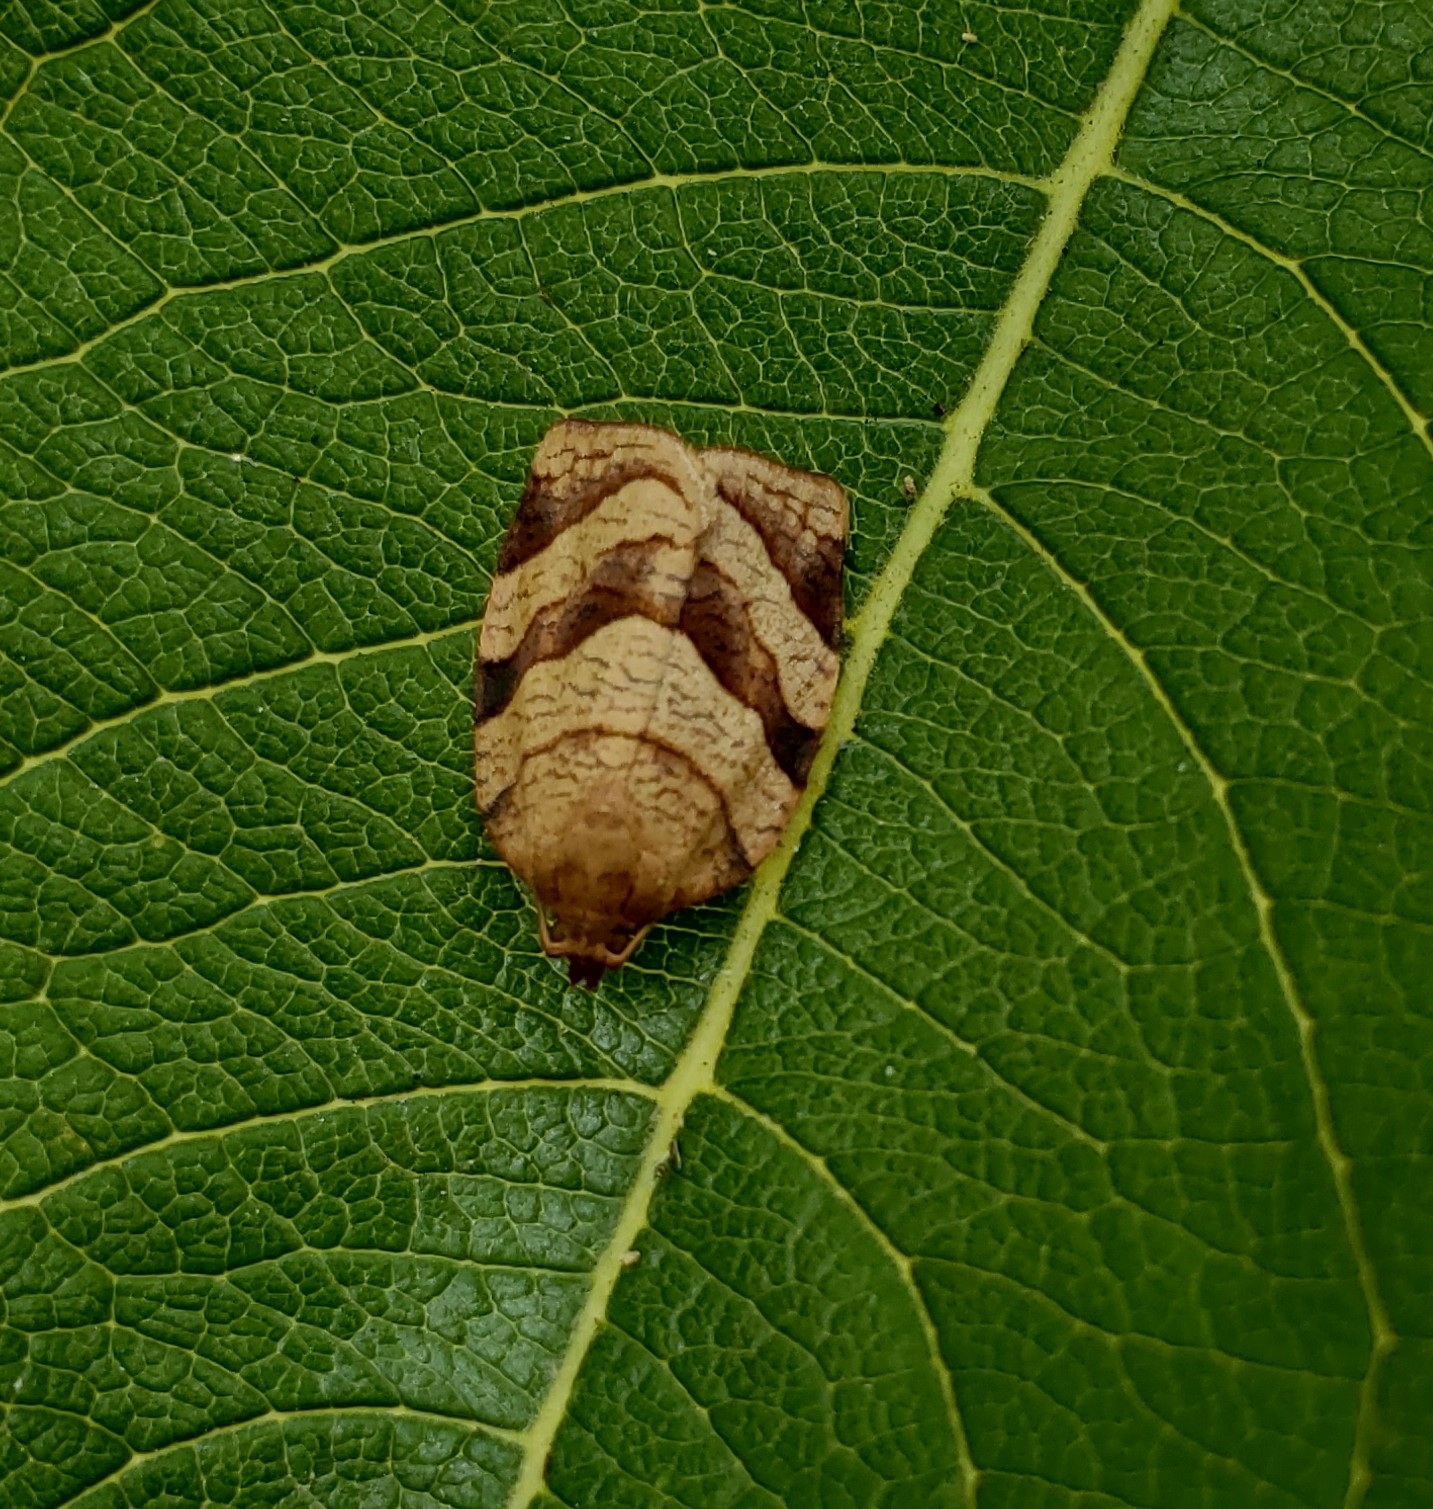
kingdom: Animalia
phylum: Arthropoda
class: Insecta
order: Lepidoptera
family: Tortricidae
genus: Choristoneura
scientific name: Choristoneura parallela
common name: Parallel-banded leafroller moth
